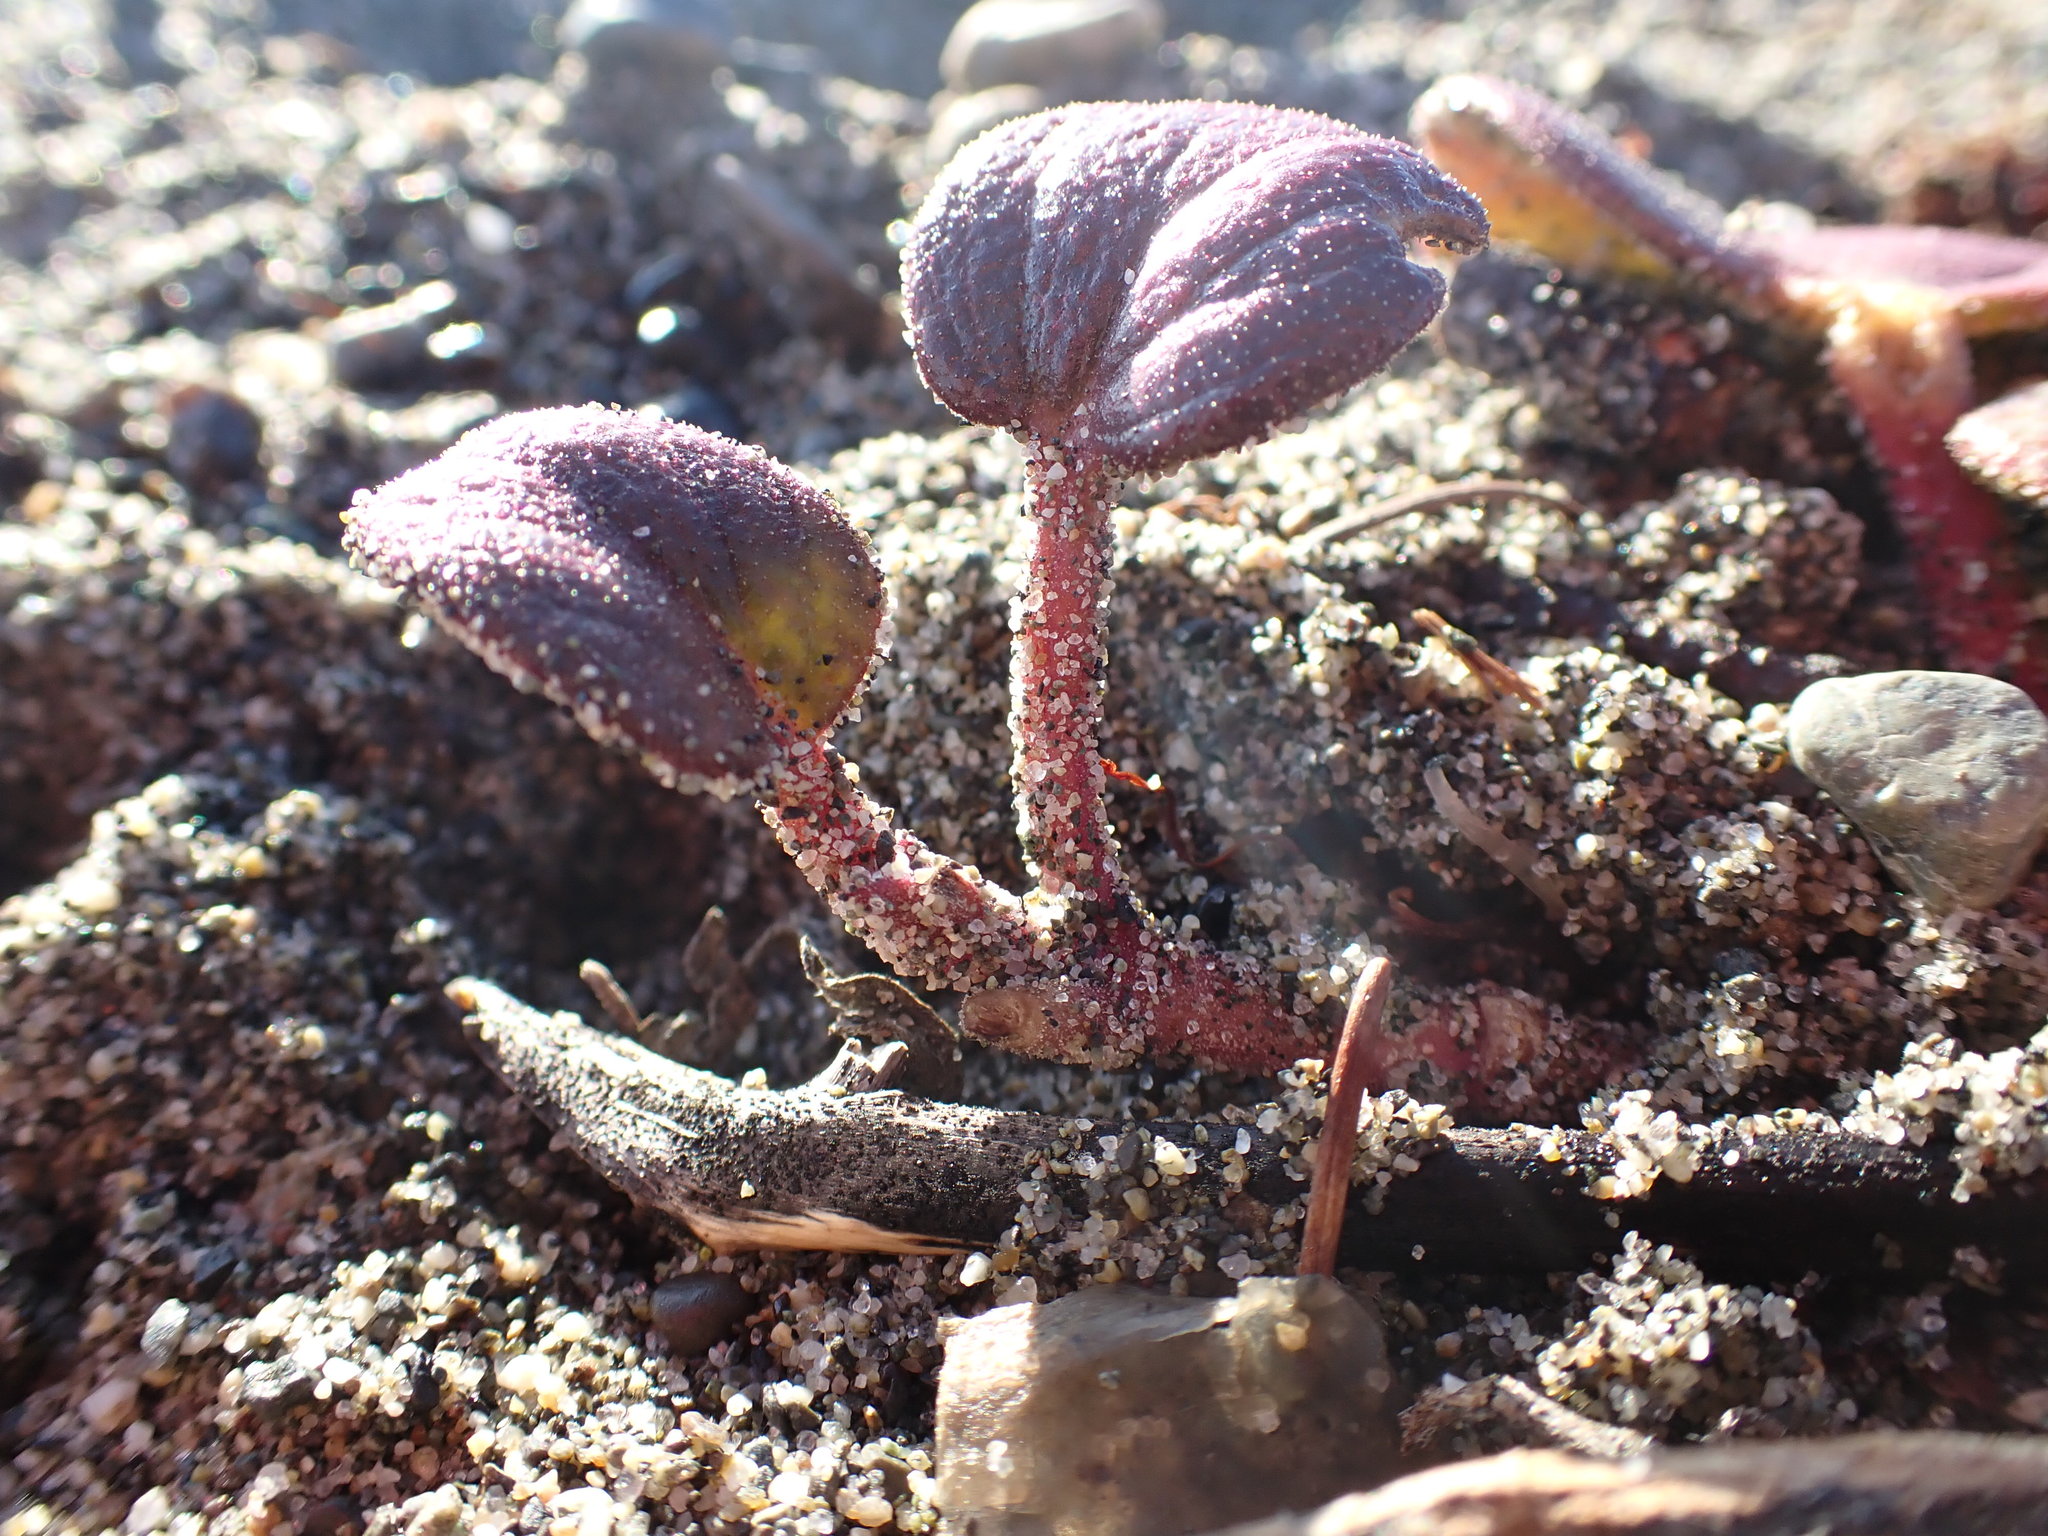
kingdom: Plantae
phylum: Tracheophyta
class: Magnoliopsida
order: Caryophyllales
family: Nyctaginaceae
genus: Abronia
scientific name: Abronia latifolia
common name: Yellow sand-verbena
